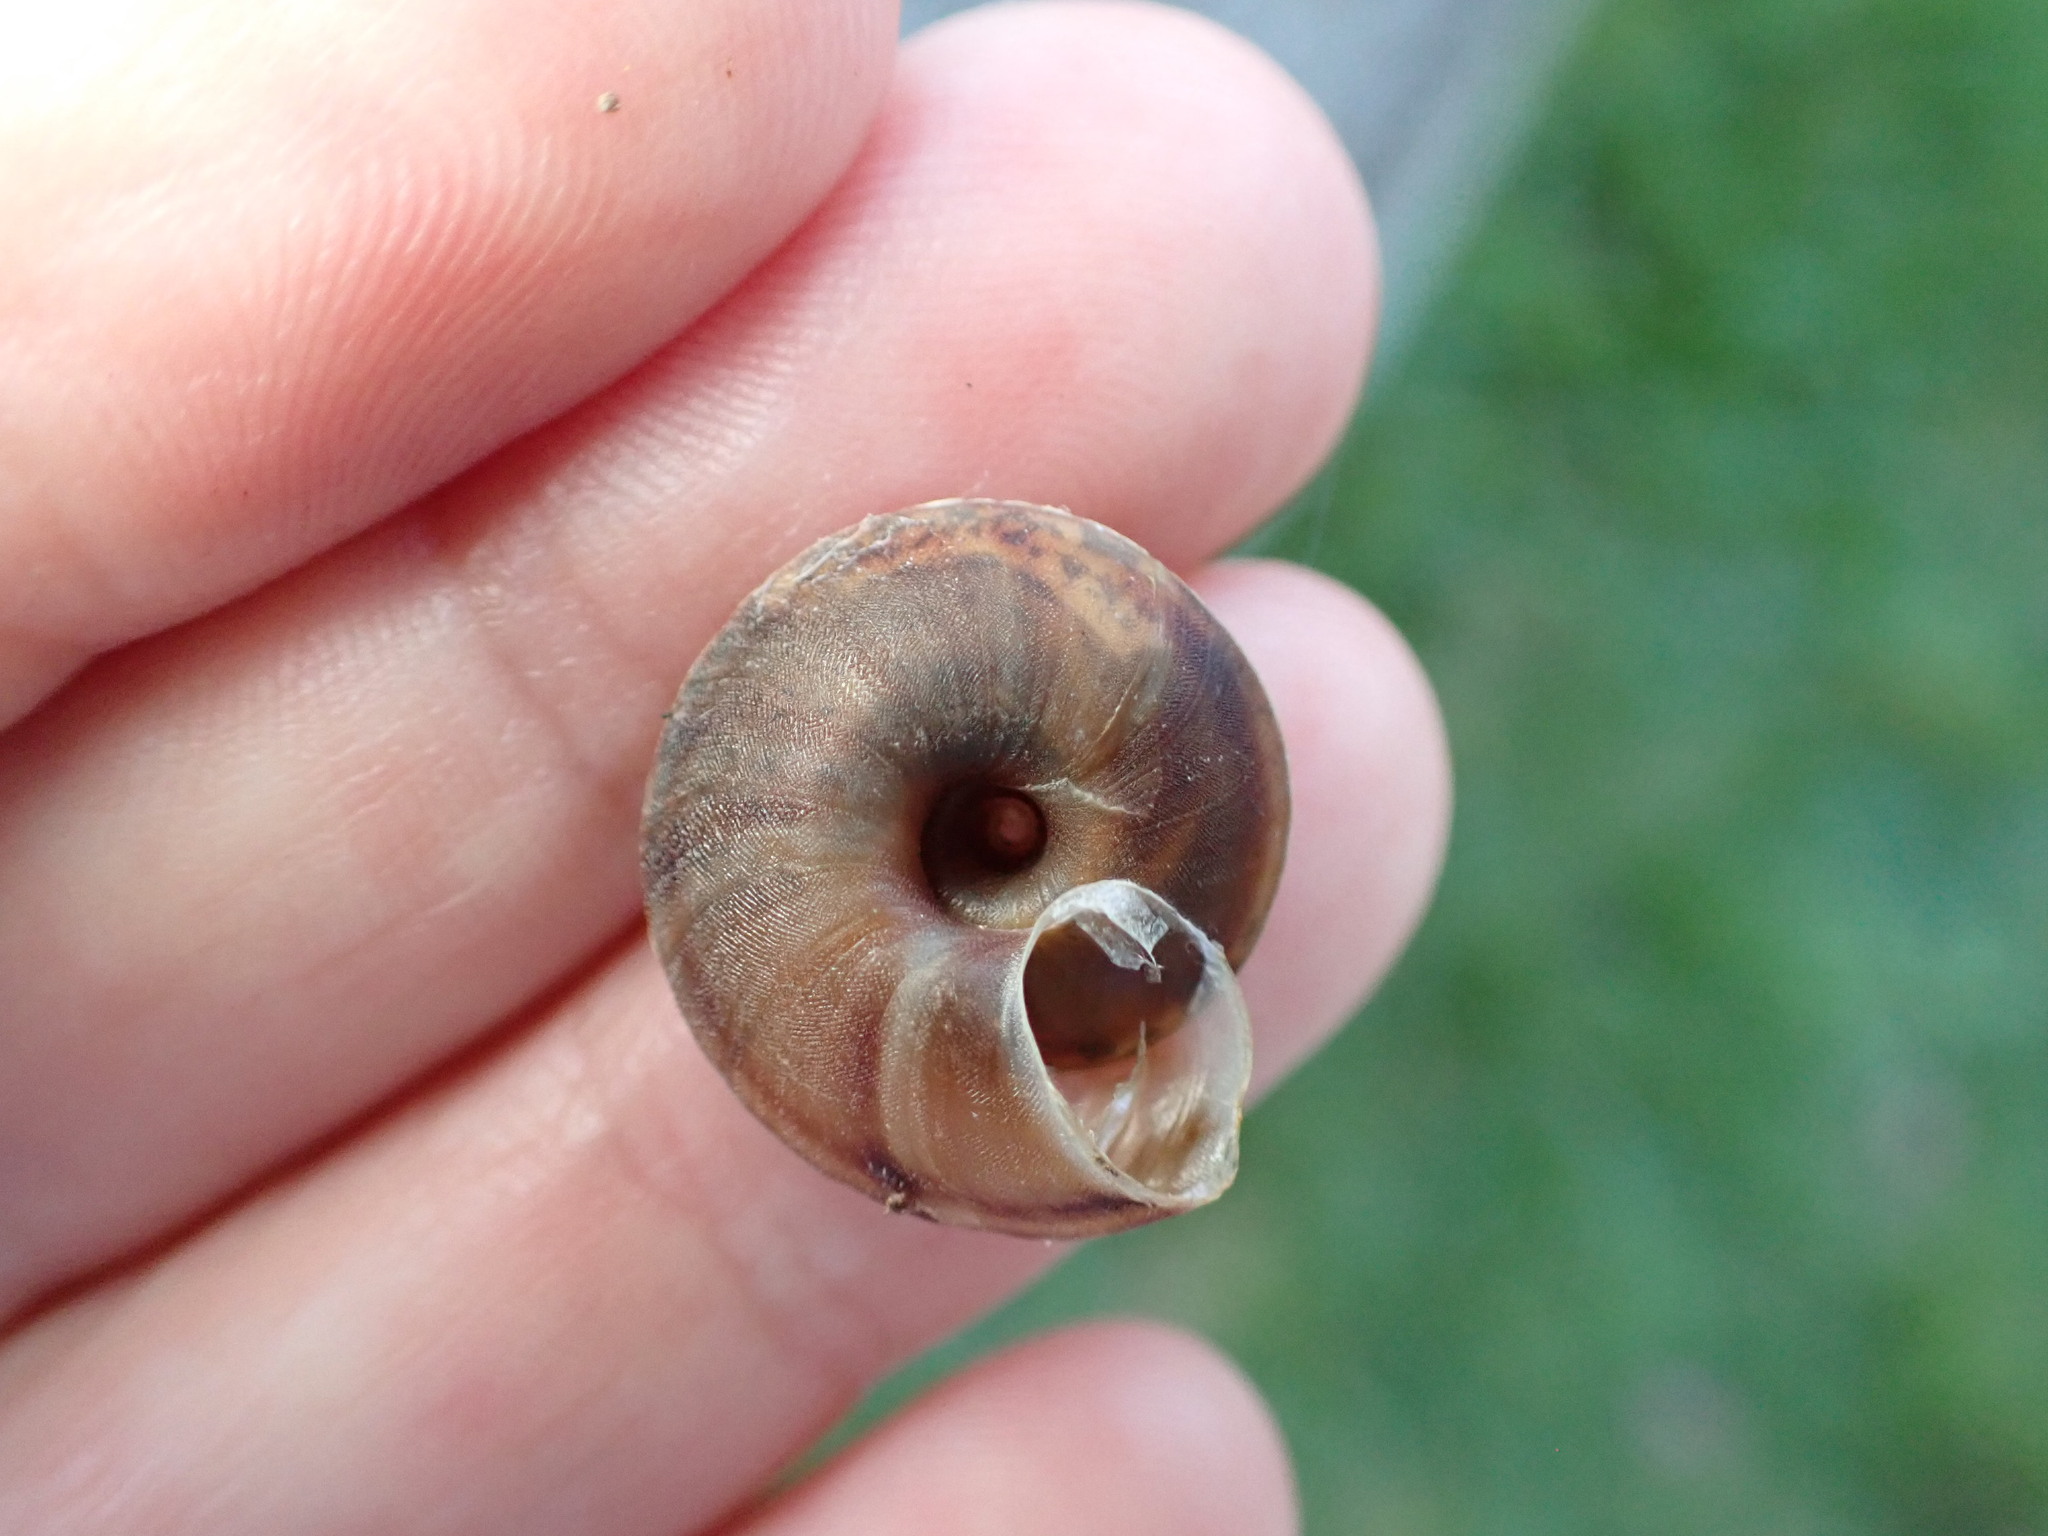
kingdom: Animalia
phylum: Mollusca
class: Gastropoda
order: Stylommatophora
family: Helicidae
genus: Helicigona
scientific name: Helicigona lapicida
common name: Lapidary snail
